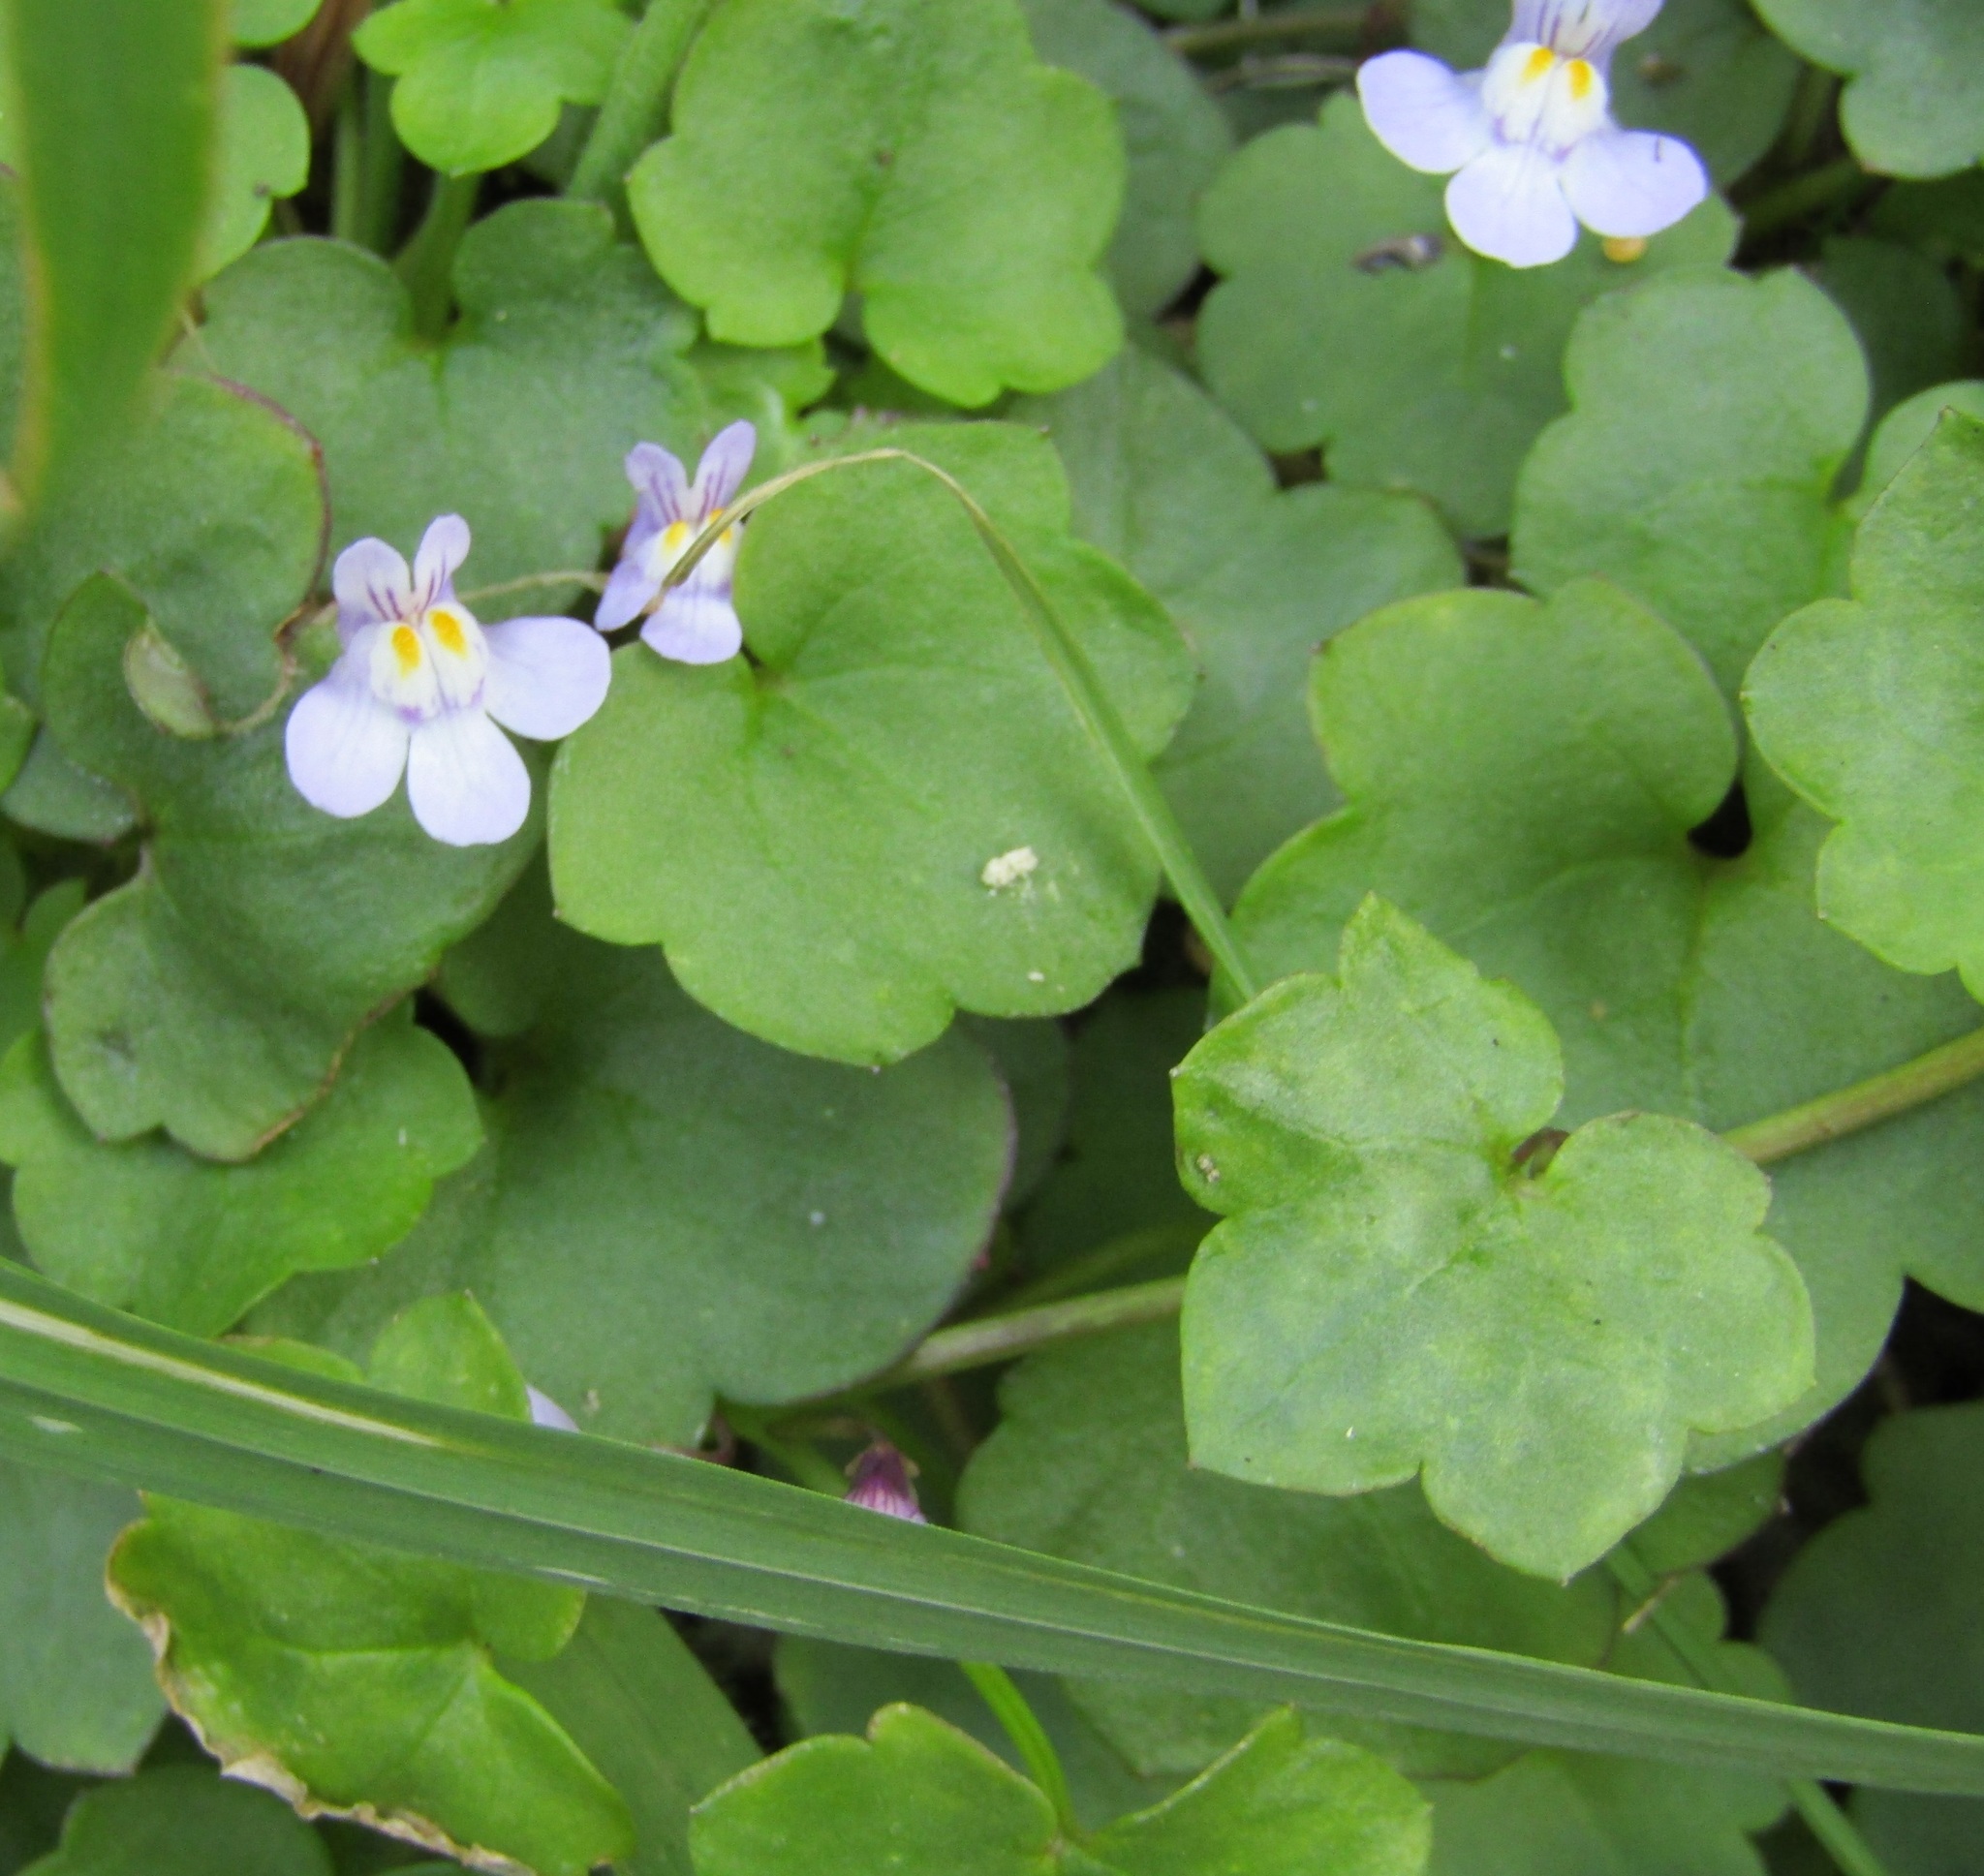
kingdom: Plantae
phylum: Tracheophyta
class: Magnoliopsida
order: Lamiales
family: Plantaginaceae
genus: Cymbalaria
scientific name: Cymbalaria muralis
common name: Ivy-leaved toadflax
